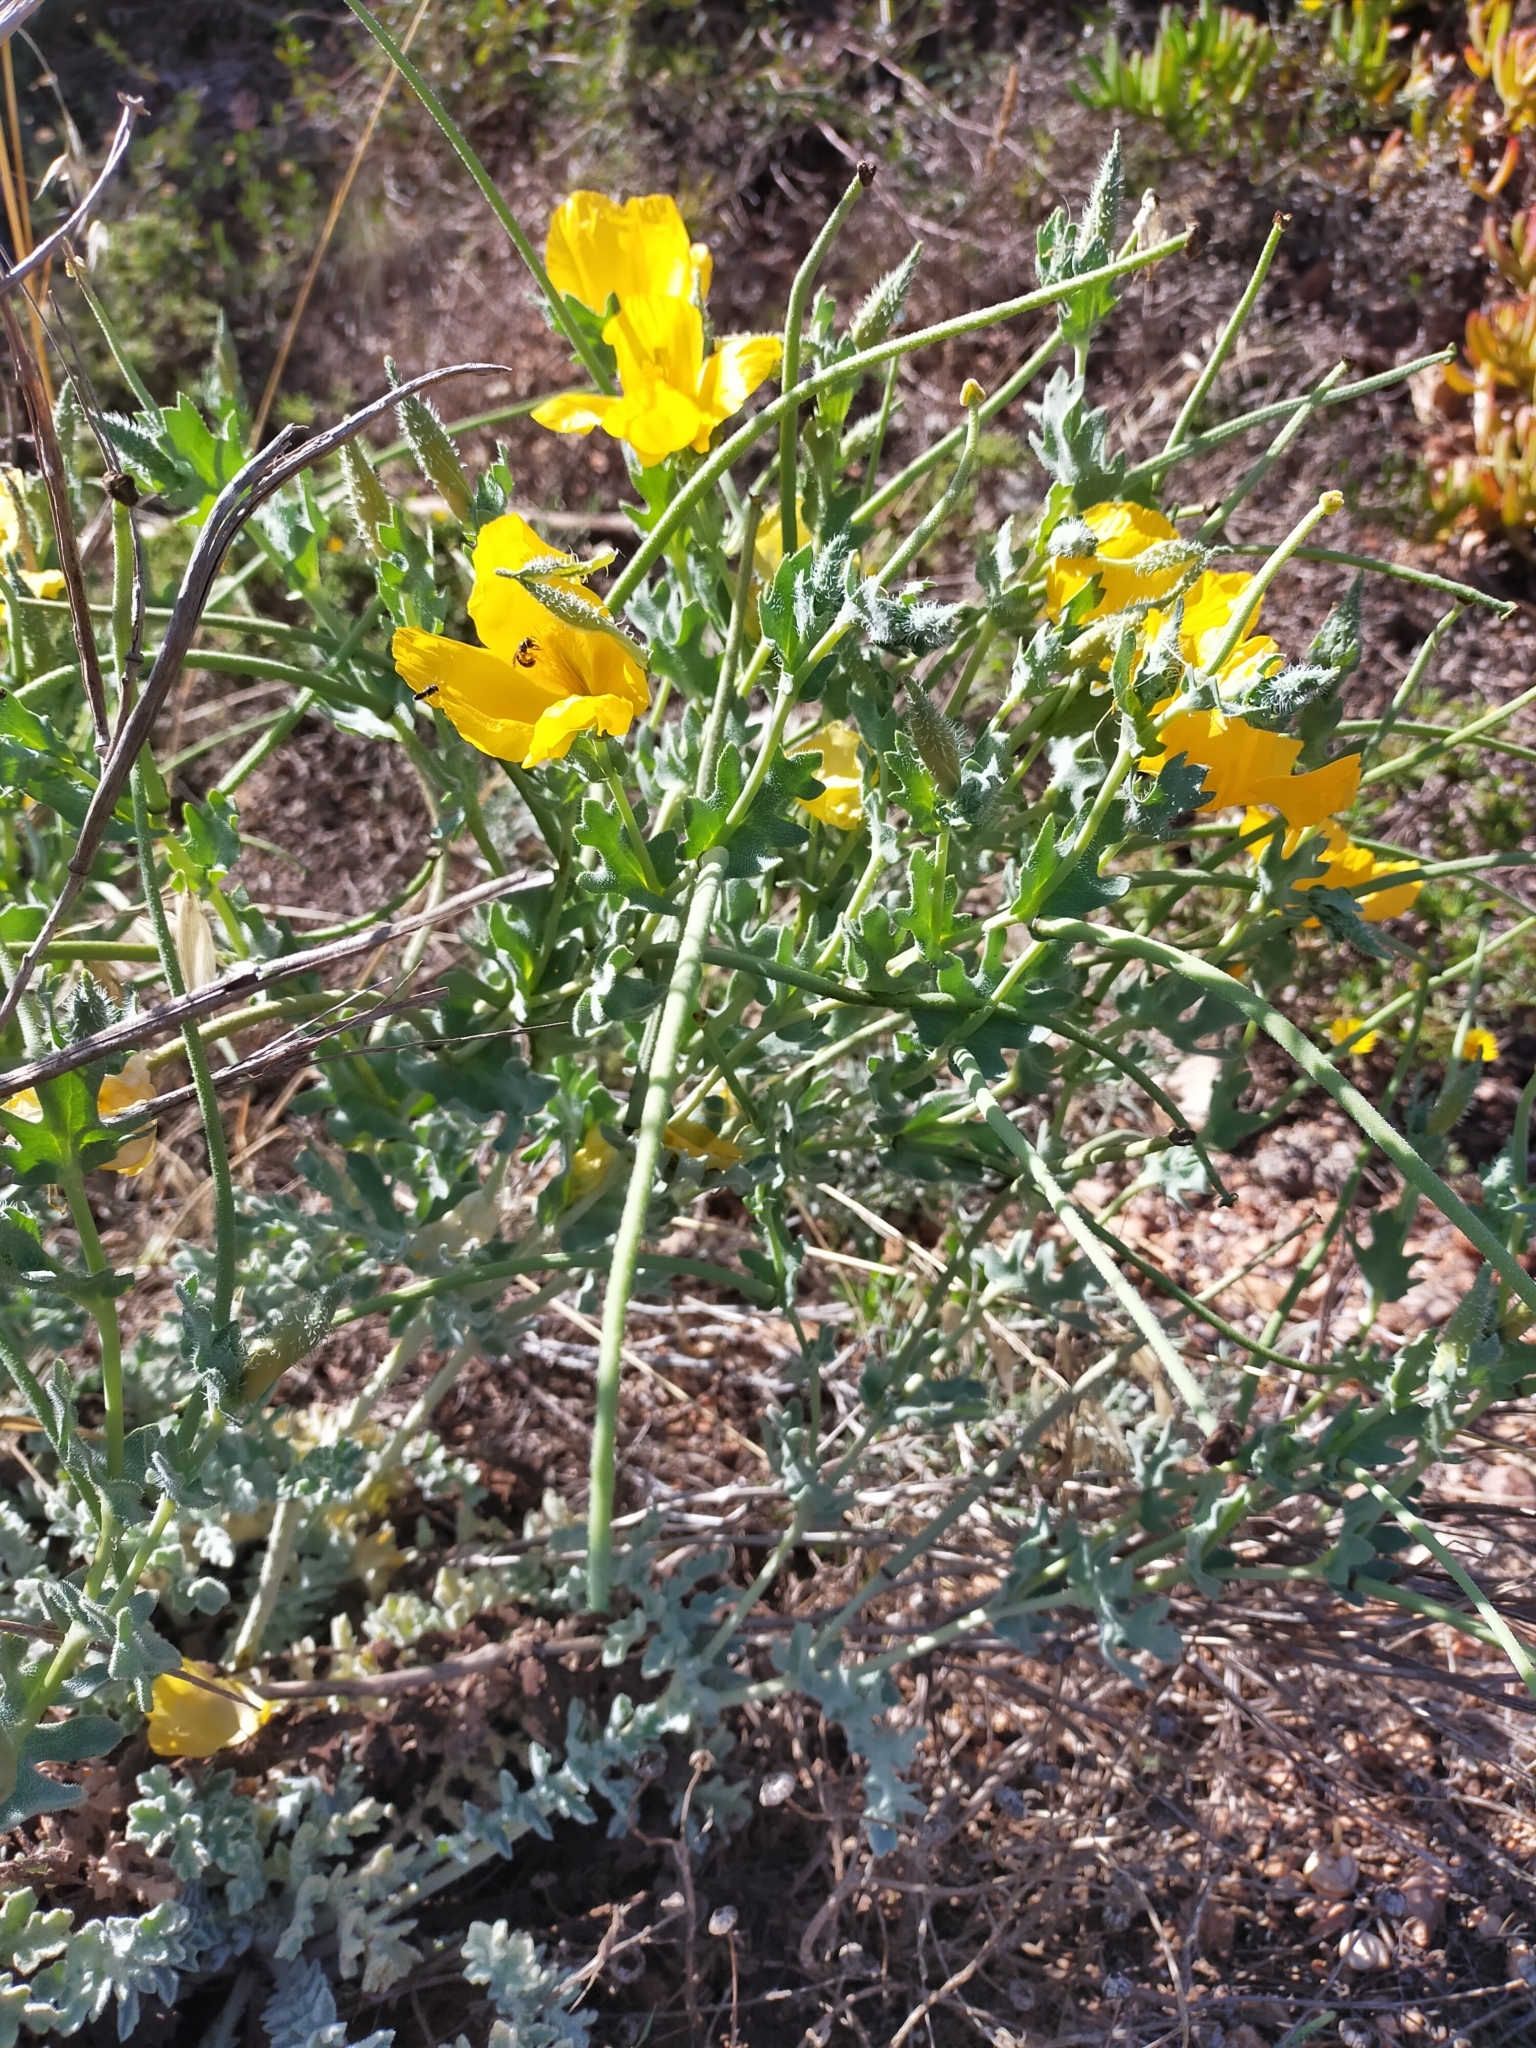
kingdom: Plantae
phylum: Tracheophyta
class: Magnoliopsida
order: Ranunculales
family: Papaveraceae
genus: Glaucium
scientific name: Glaucium flavum
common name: Yellow horned-poppy
